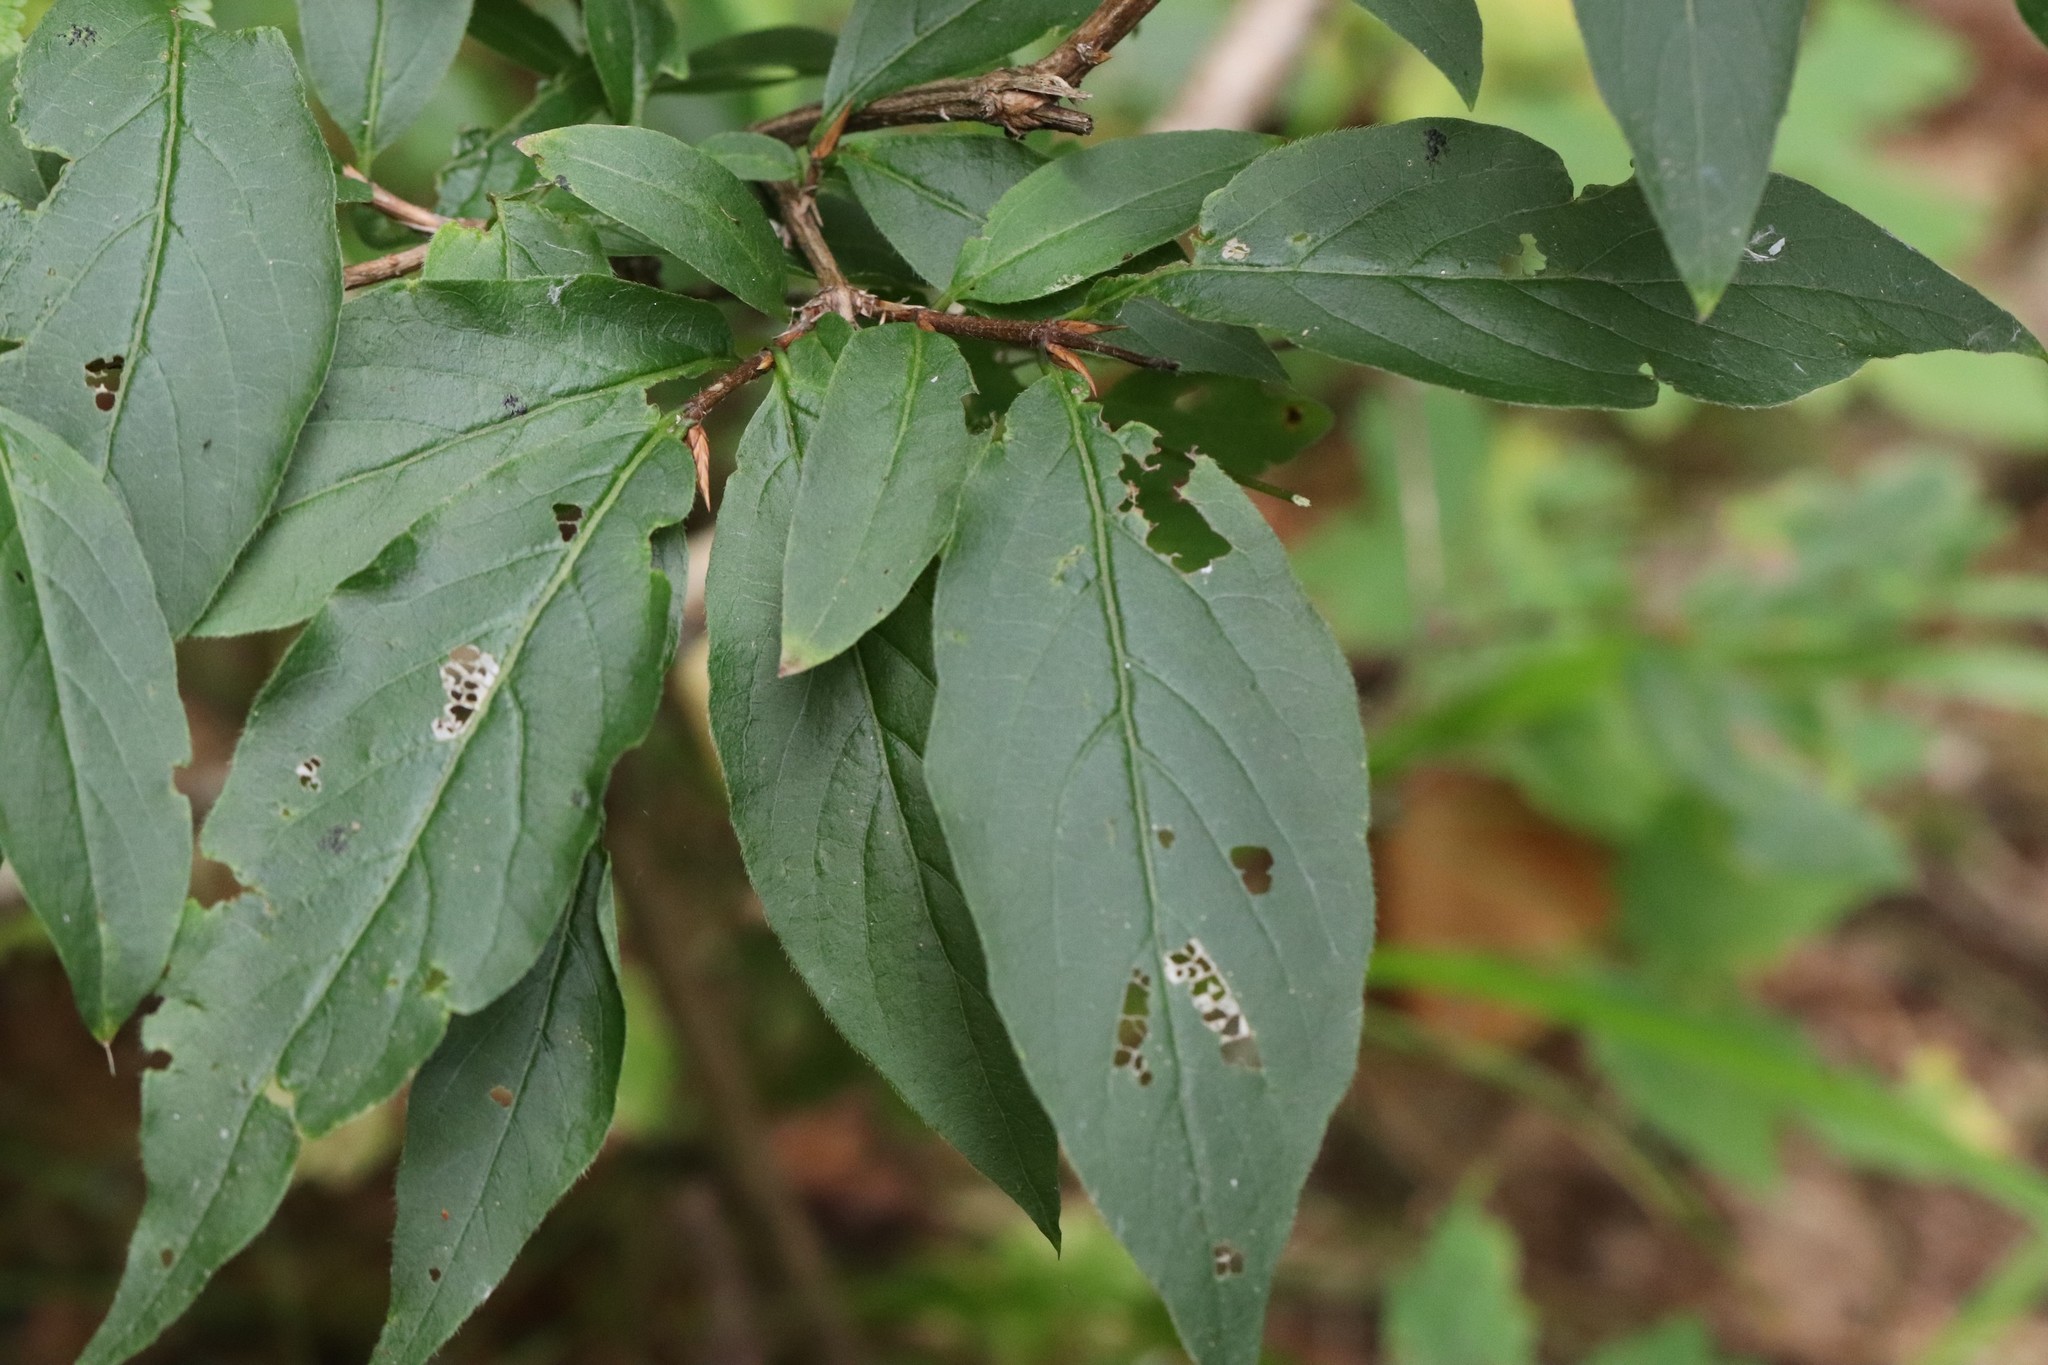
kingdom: Plantae
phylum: Tracheophyta
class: Magnoliopsida
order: Dipsacales
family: Caprifoliaceae
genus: Lonicera
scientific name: Lonicera maximowiczii
